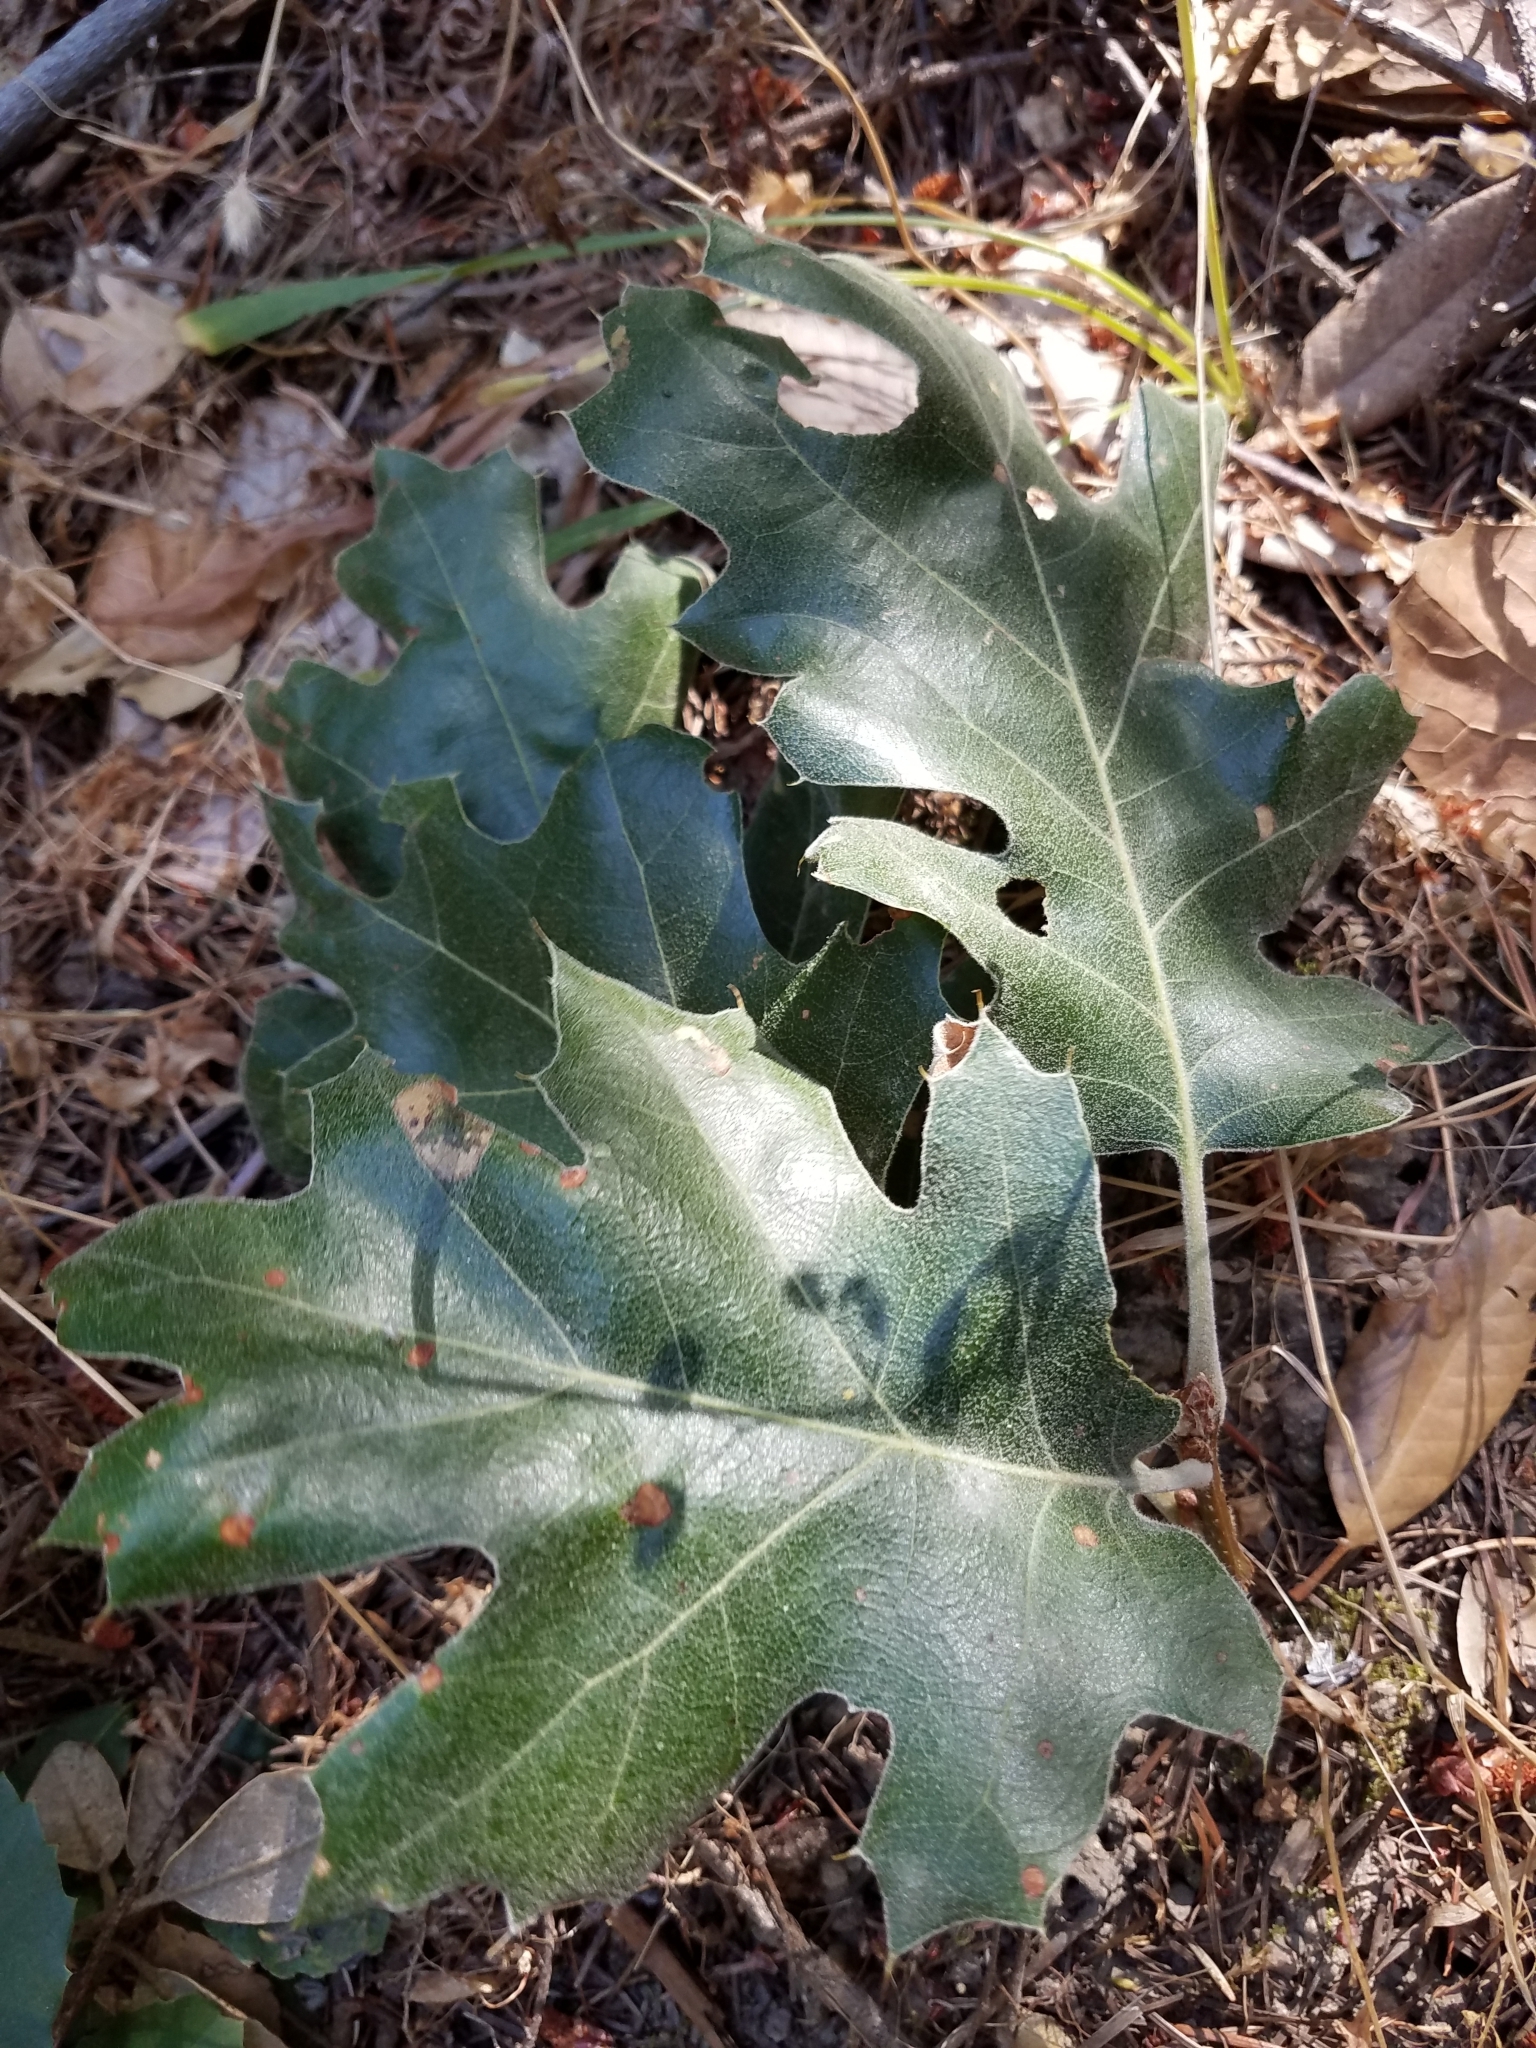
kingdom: Plantae
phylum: Tracheophyta
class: Magnoliopsida
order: Fagales
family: Fagaceae
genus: Quercus
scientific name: Quercus kelloggii
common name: California black oak
